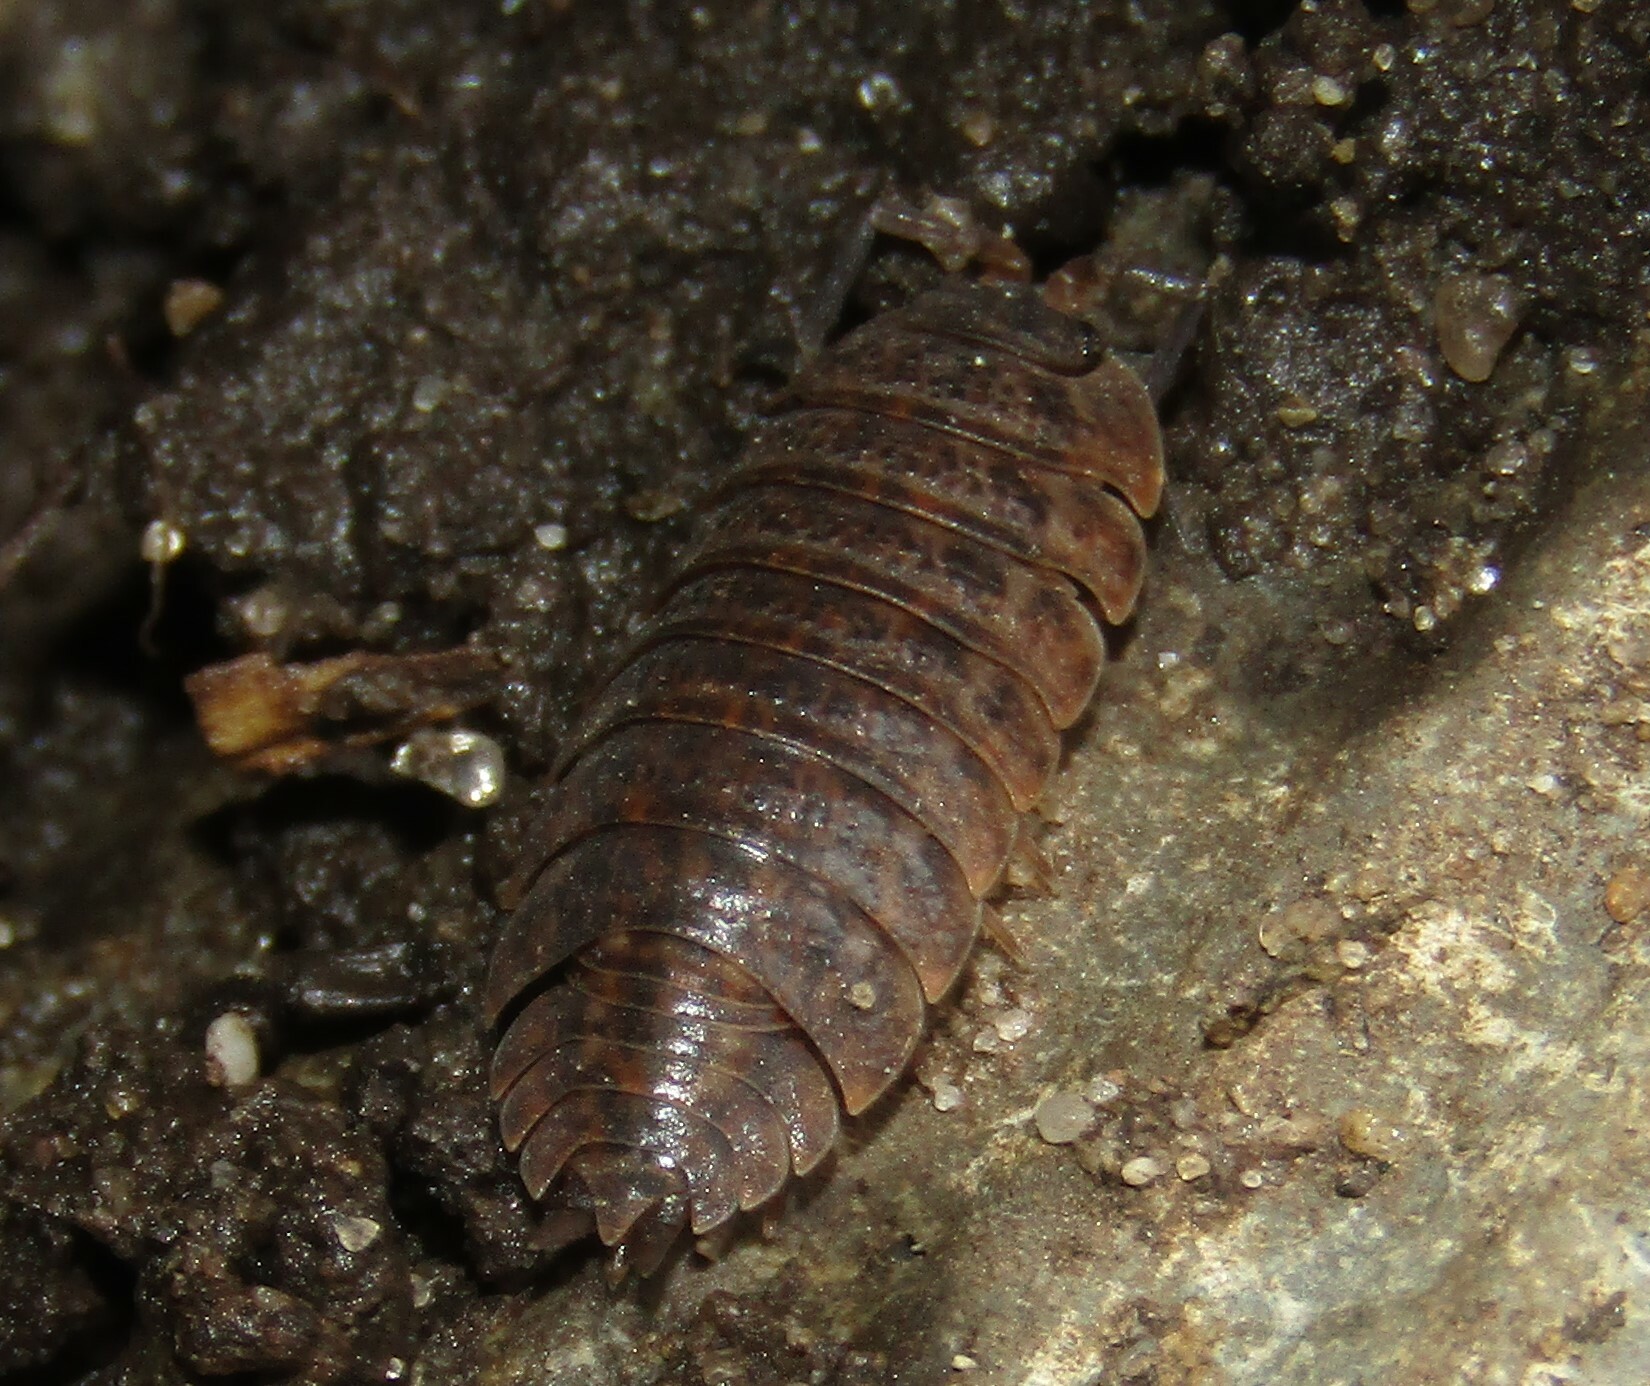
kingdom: Animalia
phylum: Arthropoda
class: Malacostraca
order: Isopoda
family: Trachelipodidae
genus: Trachelipus
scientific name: Trachelipus rathkii
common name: Isopod
